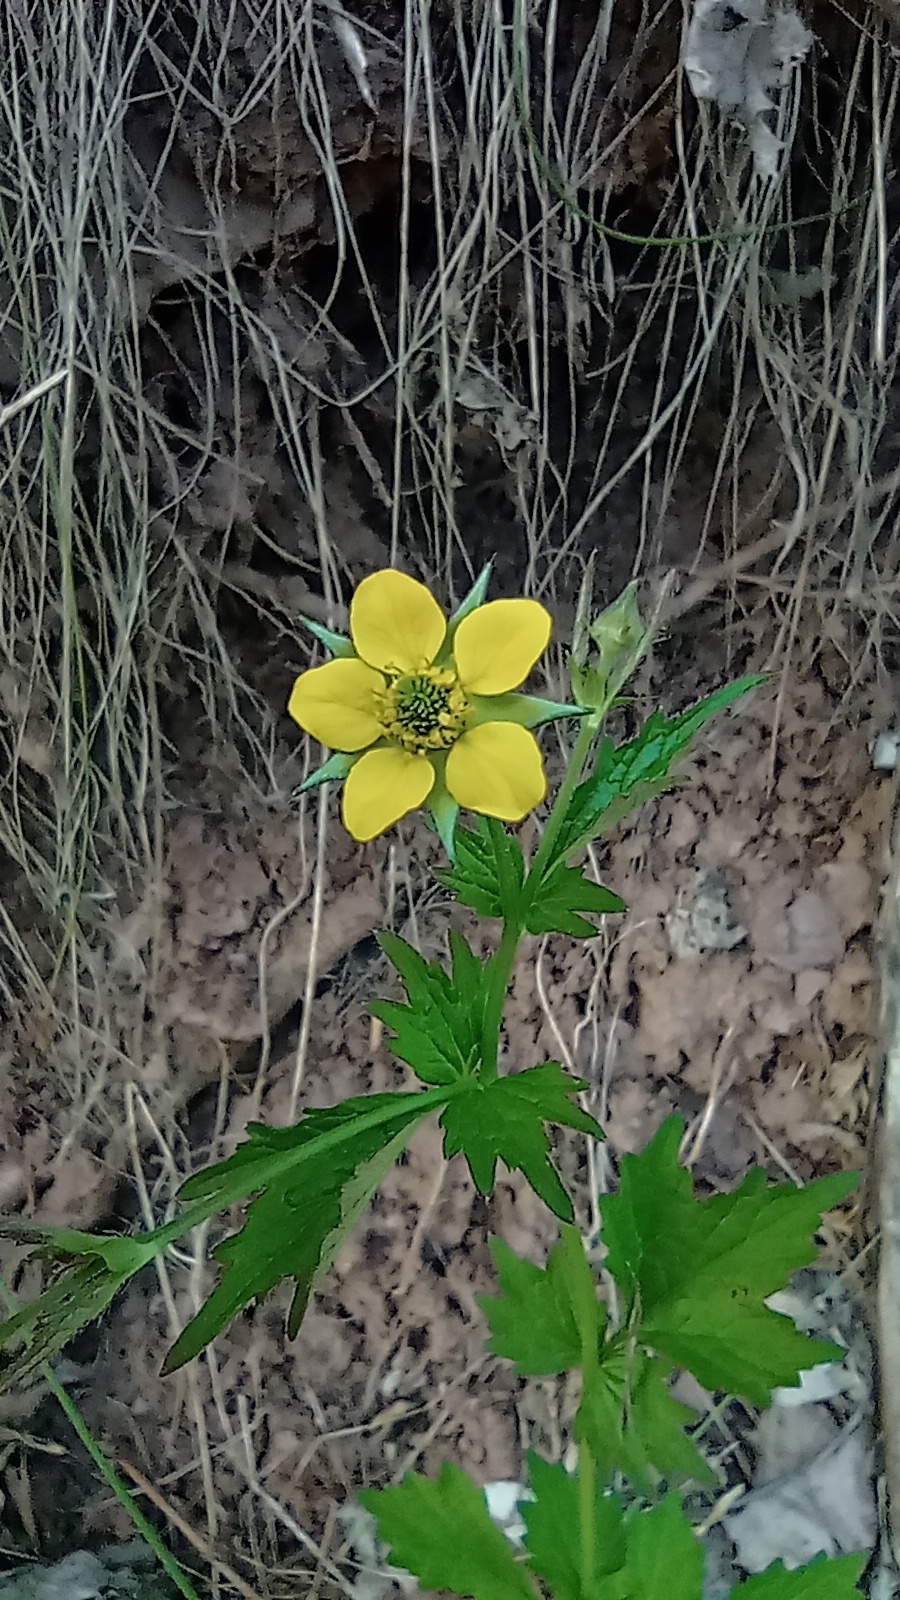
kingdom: Plantae
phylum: Tracheophyta
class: Magnoliopsida
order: Rosales
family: Rosaceae
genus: Geum
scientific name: Geum urbanum
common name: Wood avens
